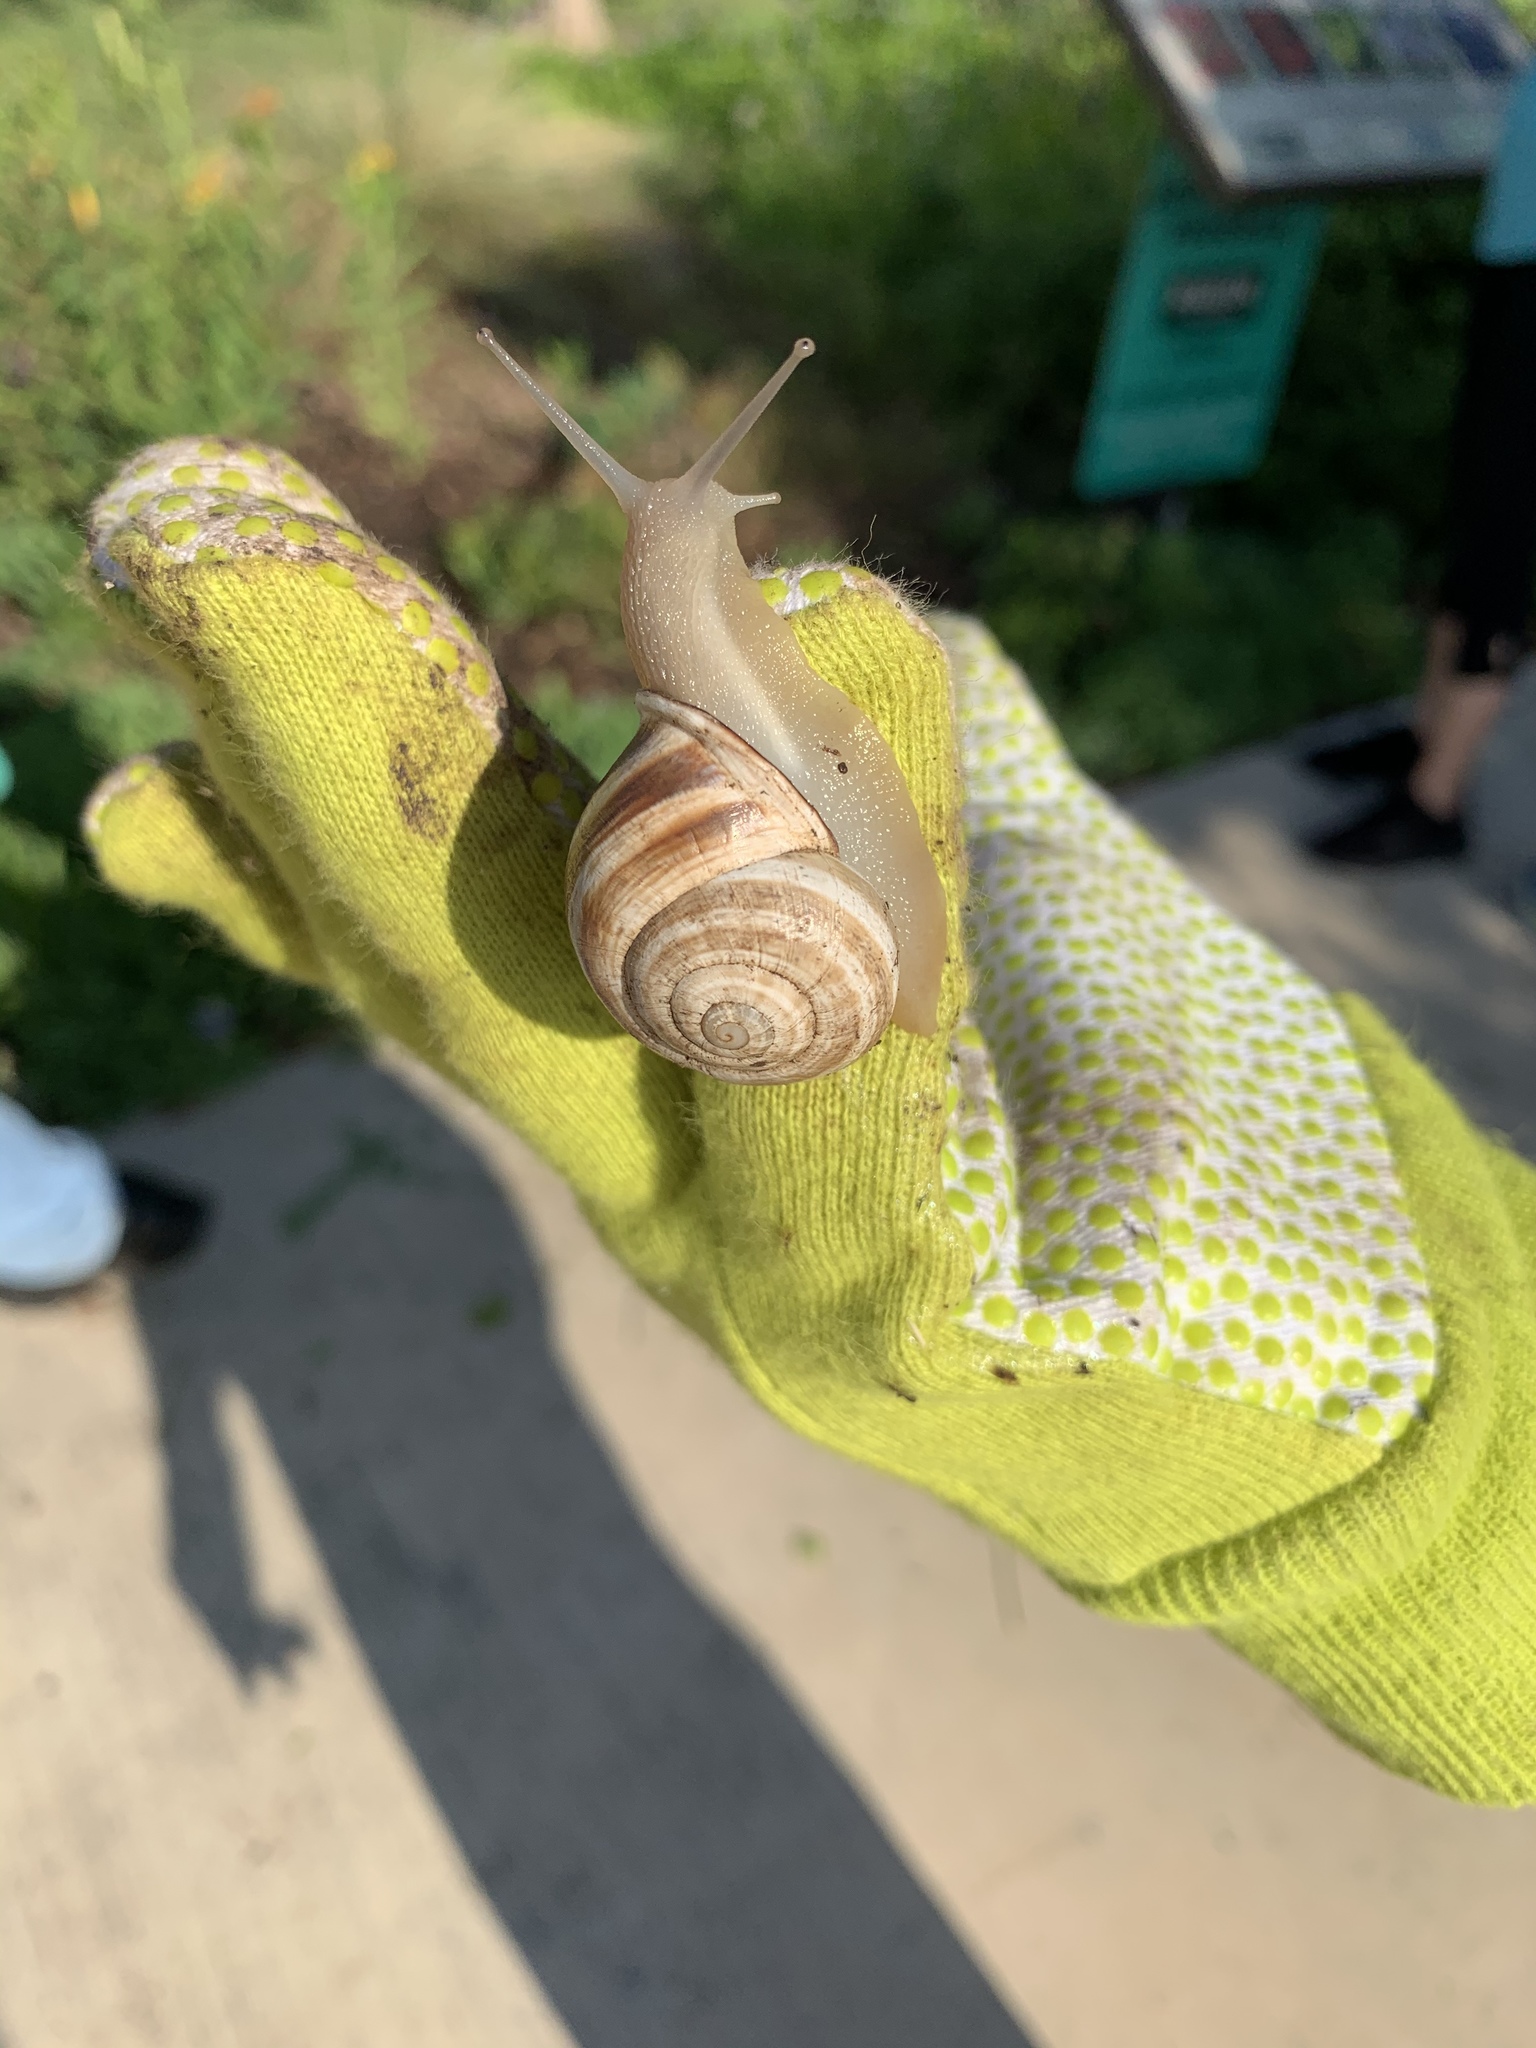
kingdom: Animalia
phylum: Mollusca
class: Gastropoda
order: Stylommatophora
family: Helicidae
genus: Otala
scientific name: Otala lactea
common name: Milk snail
